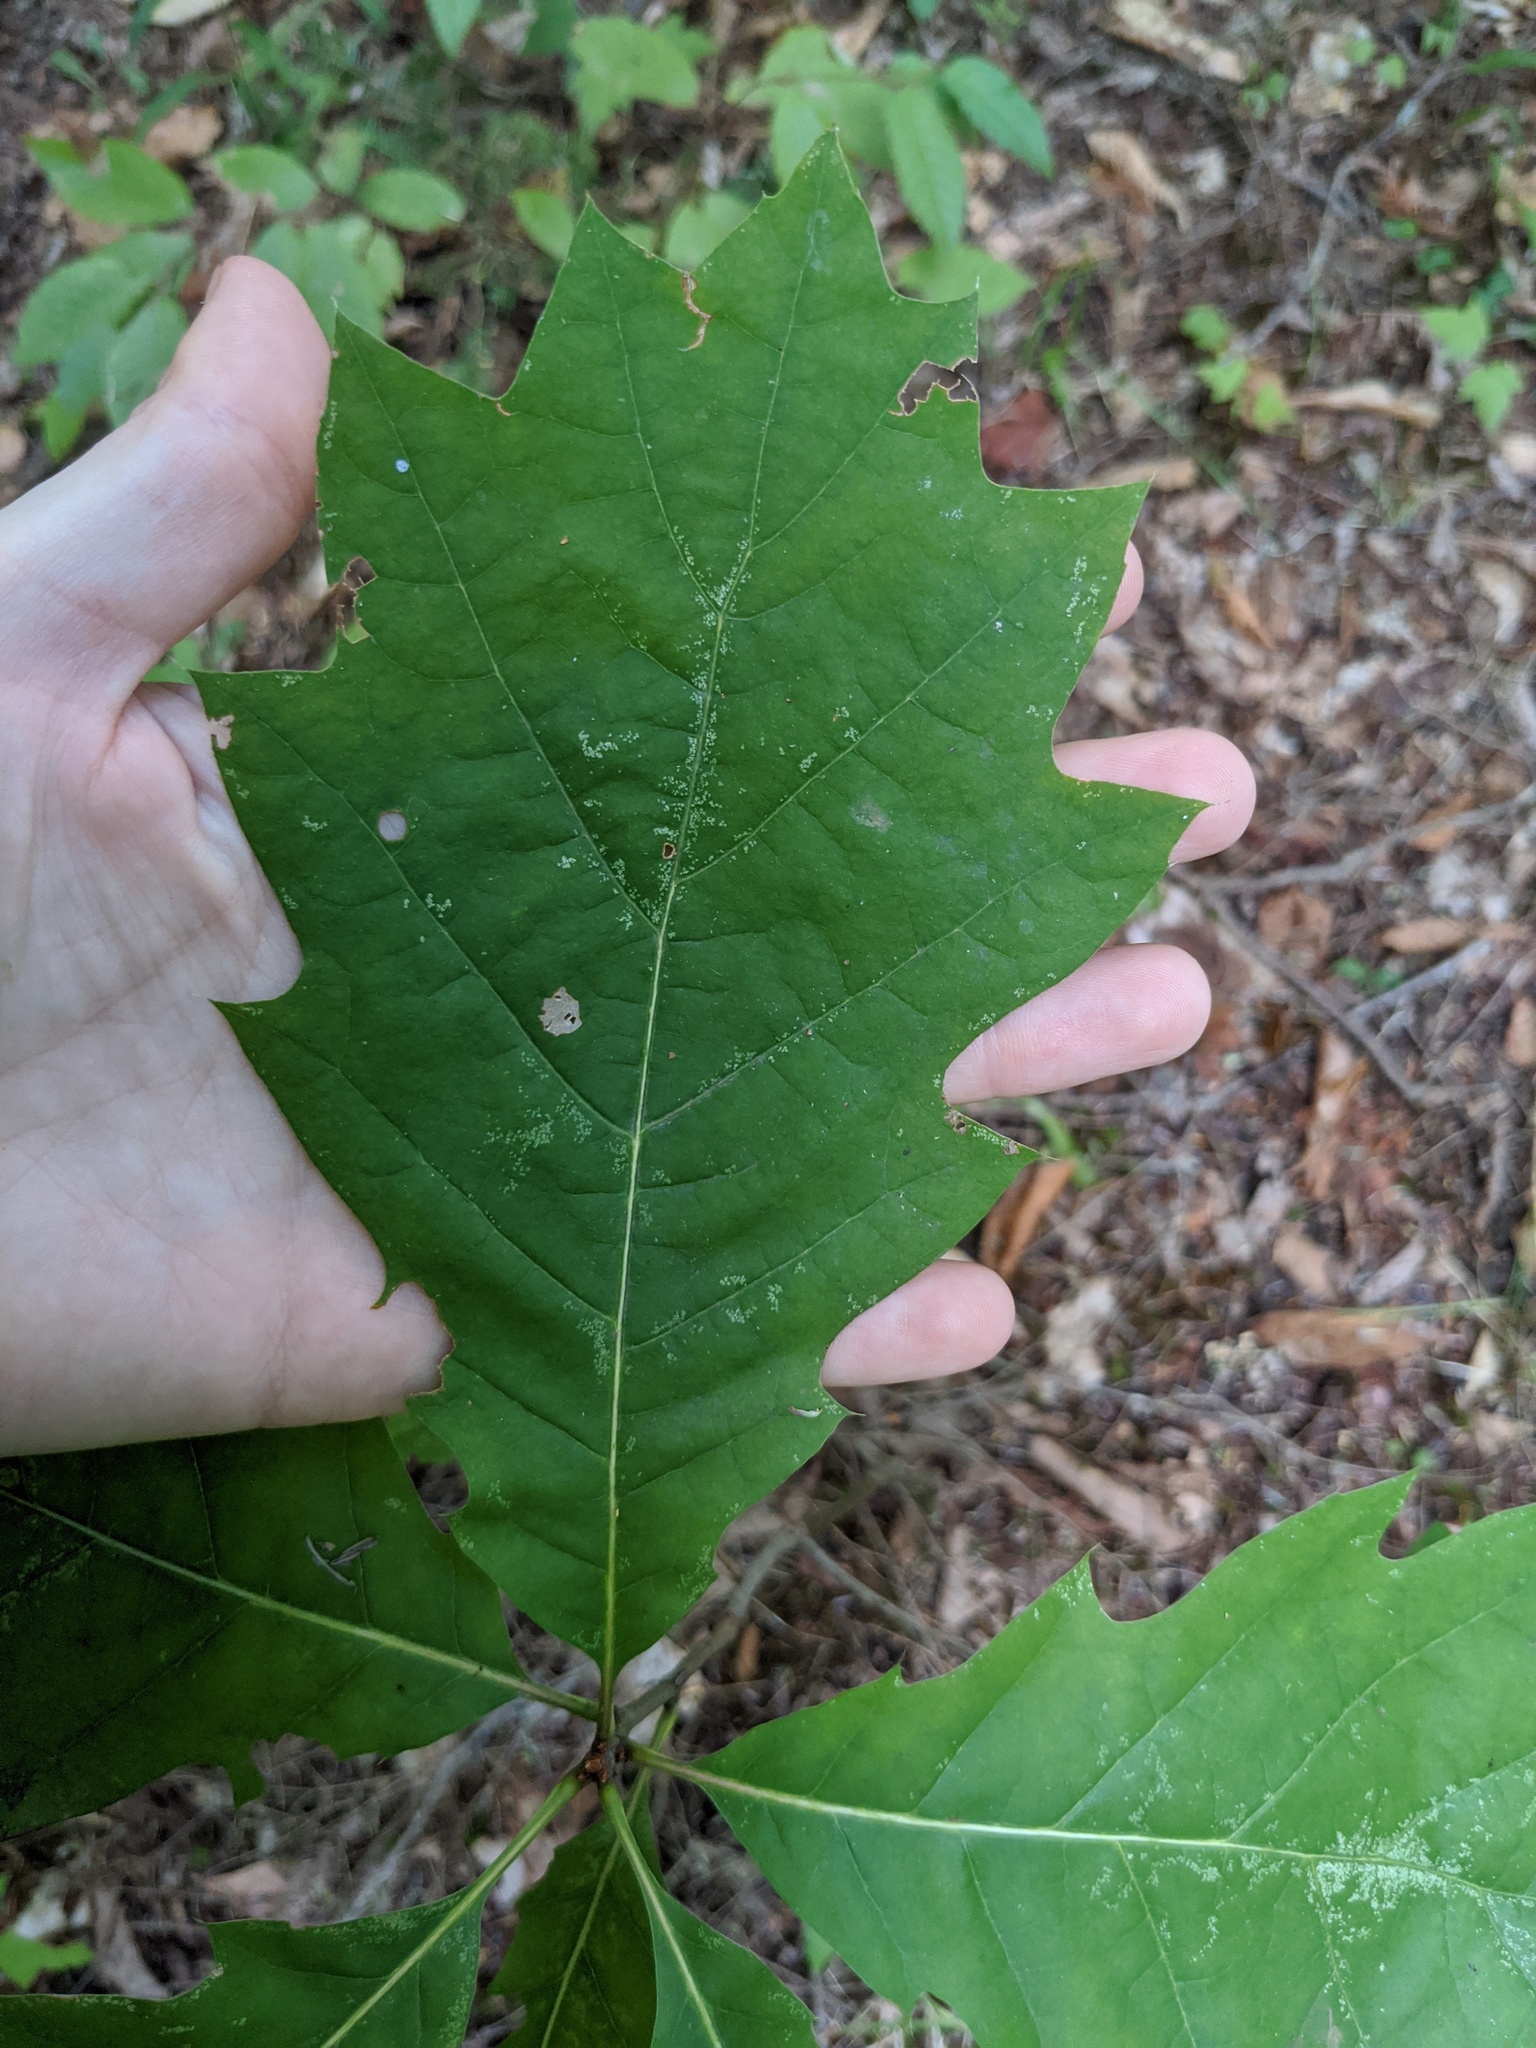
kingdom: Plantae
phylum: Tracheophyta
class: Magnoliopsida
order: Fagales
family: Fagaceae
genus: Quercus
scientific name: Quercus rubra
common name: Red oak
